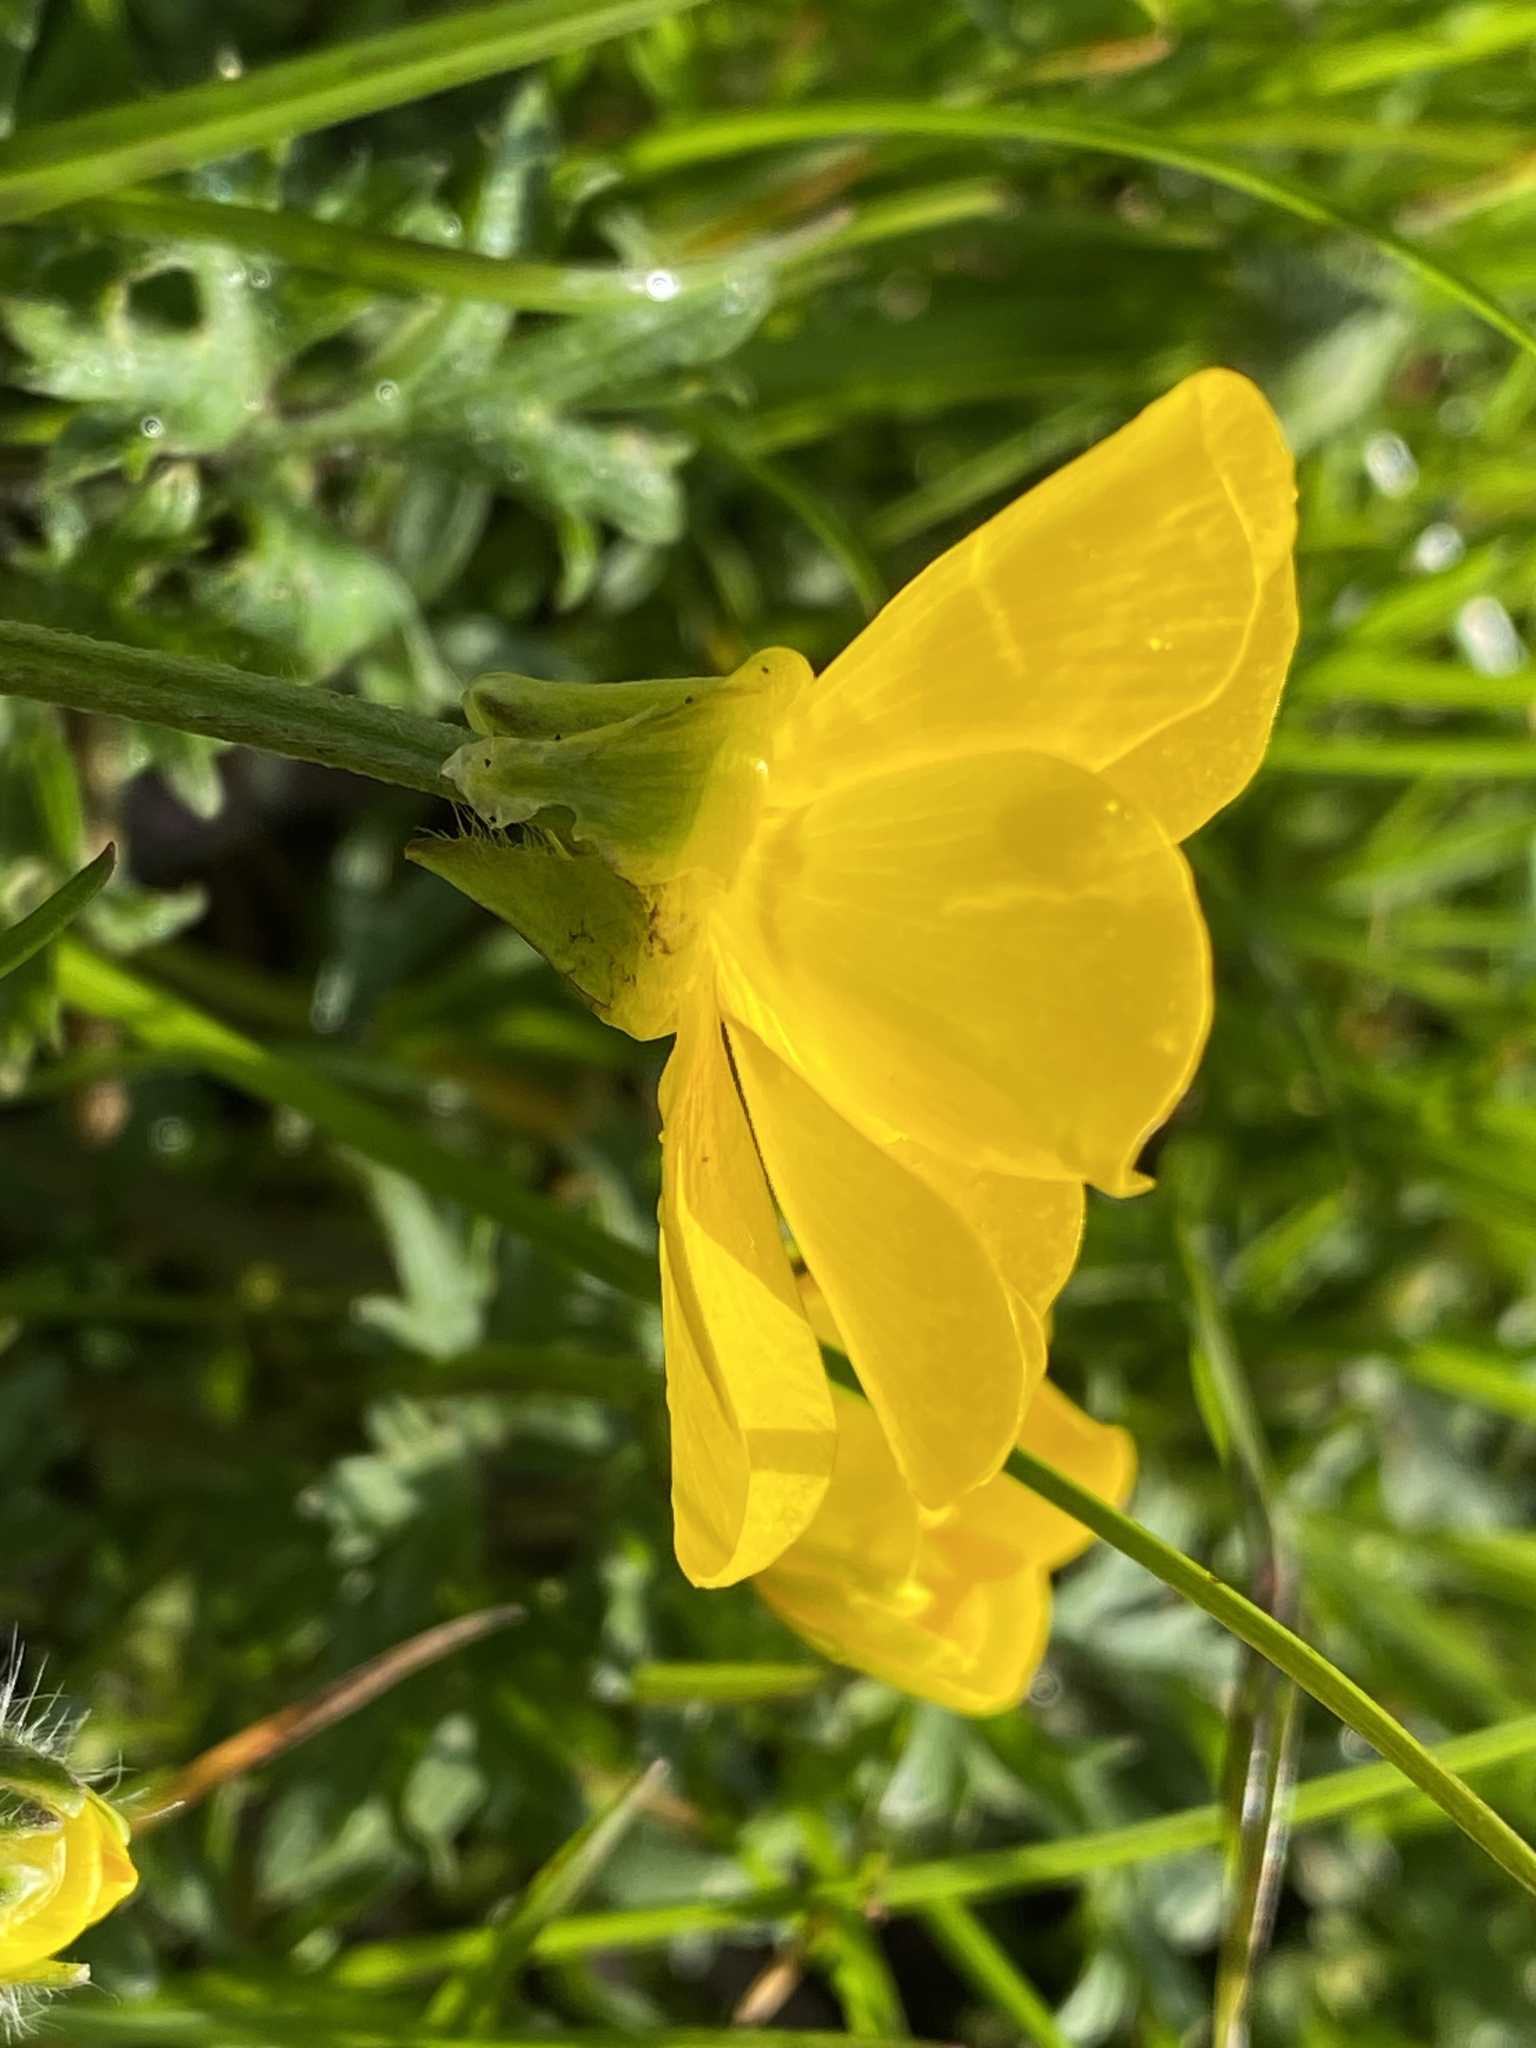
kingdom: Plantae
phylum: Tracheophyta
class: Magnoliopsida
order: Ranunculales
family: Ranunculaceae
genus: Ranunculus
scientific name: Ranunculus bulbosus
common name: Bulbous buttercup
